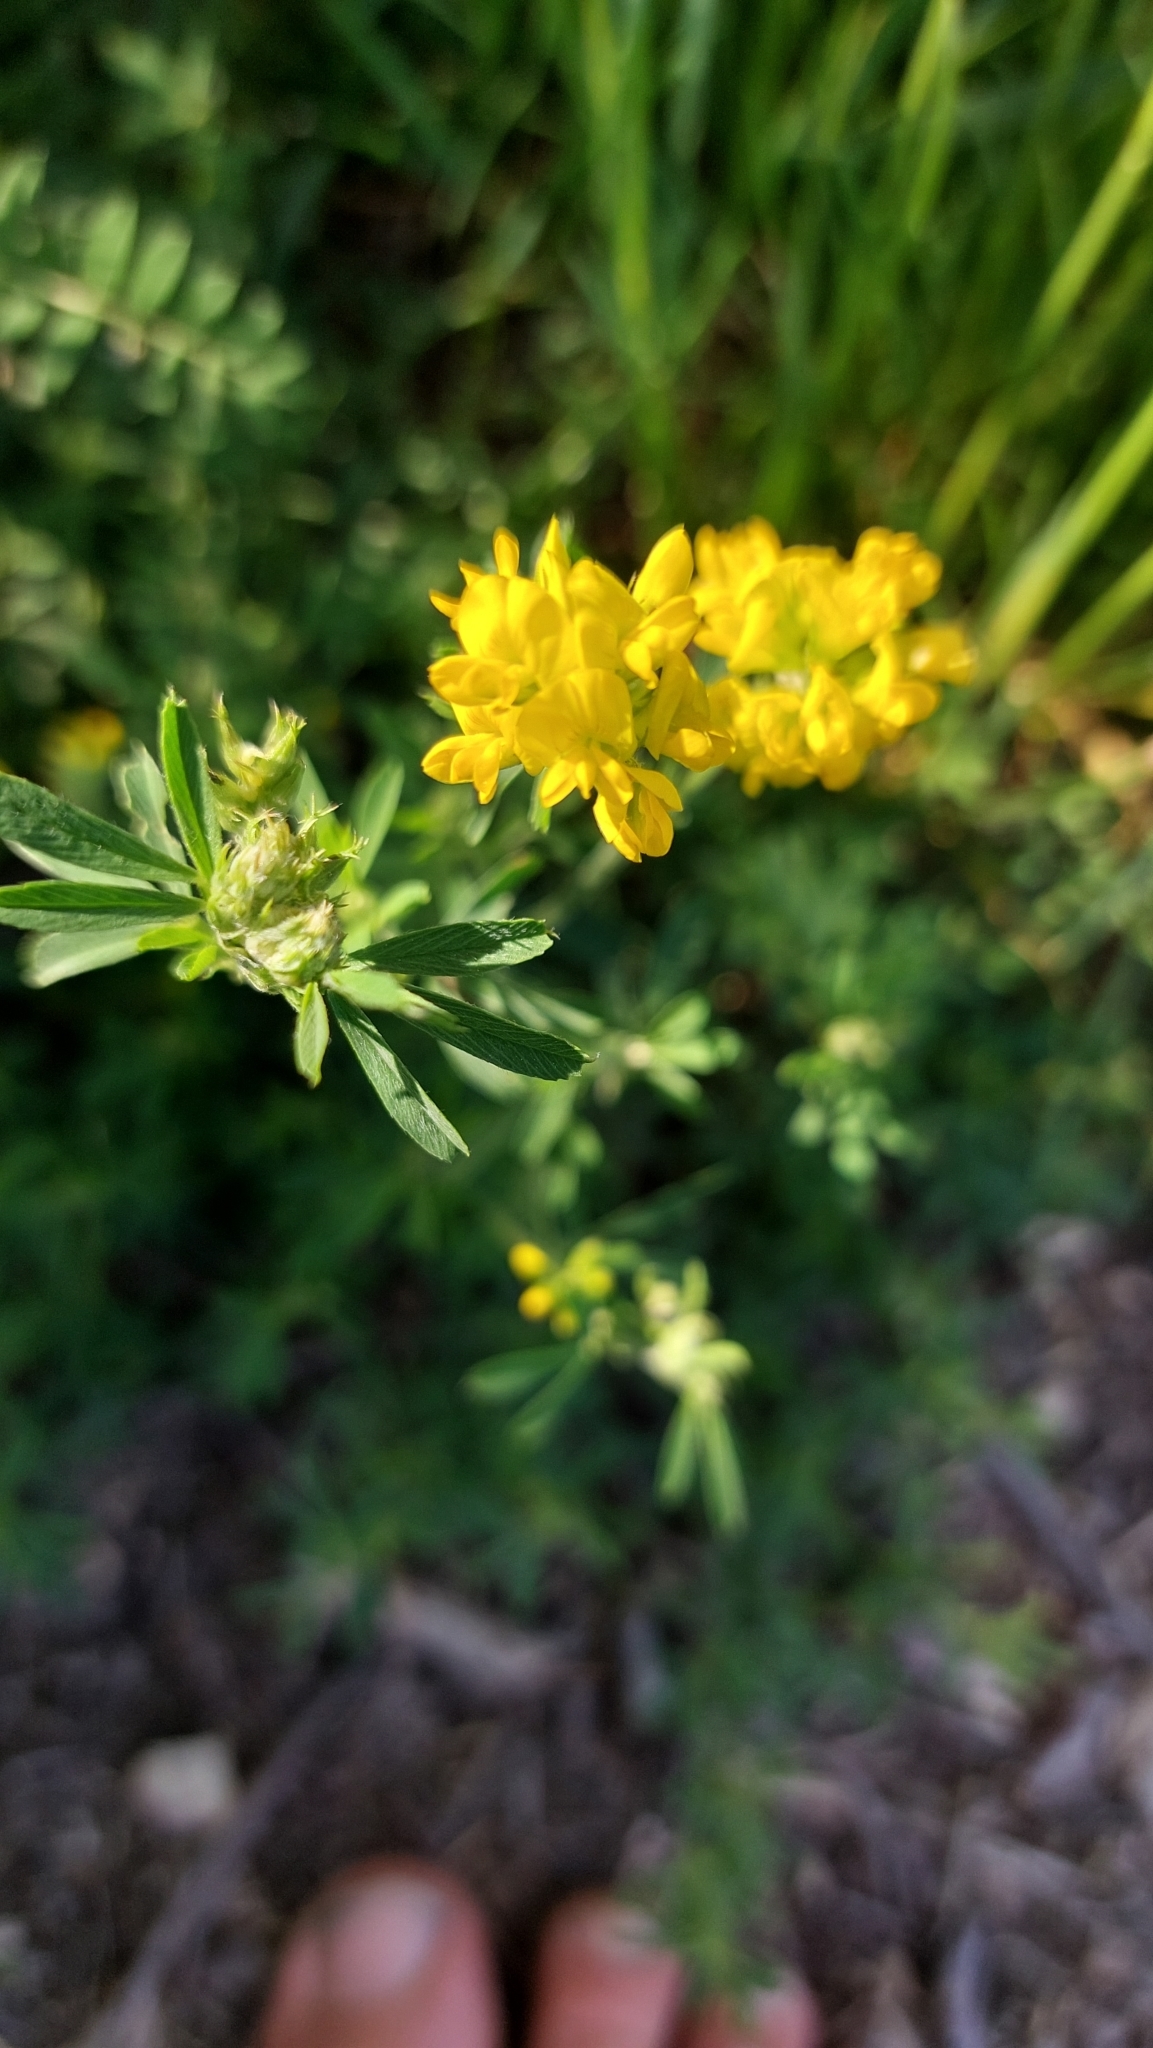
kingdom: Plantae
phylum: Tracheophyta
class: Magnoliopsida
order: Fabales
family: Fabaceae
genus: Medicago
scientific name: Medicago falcata
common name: Sickle medick
